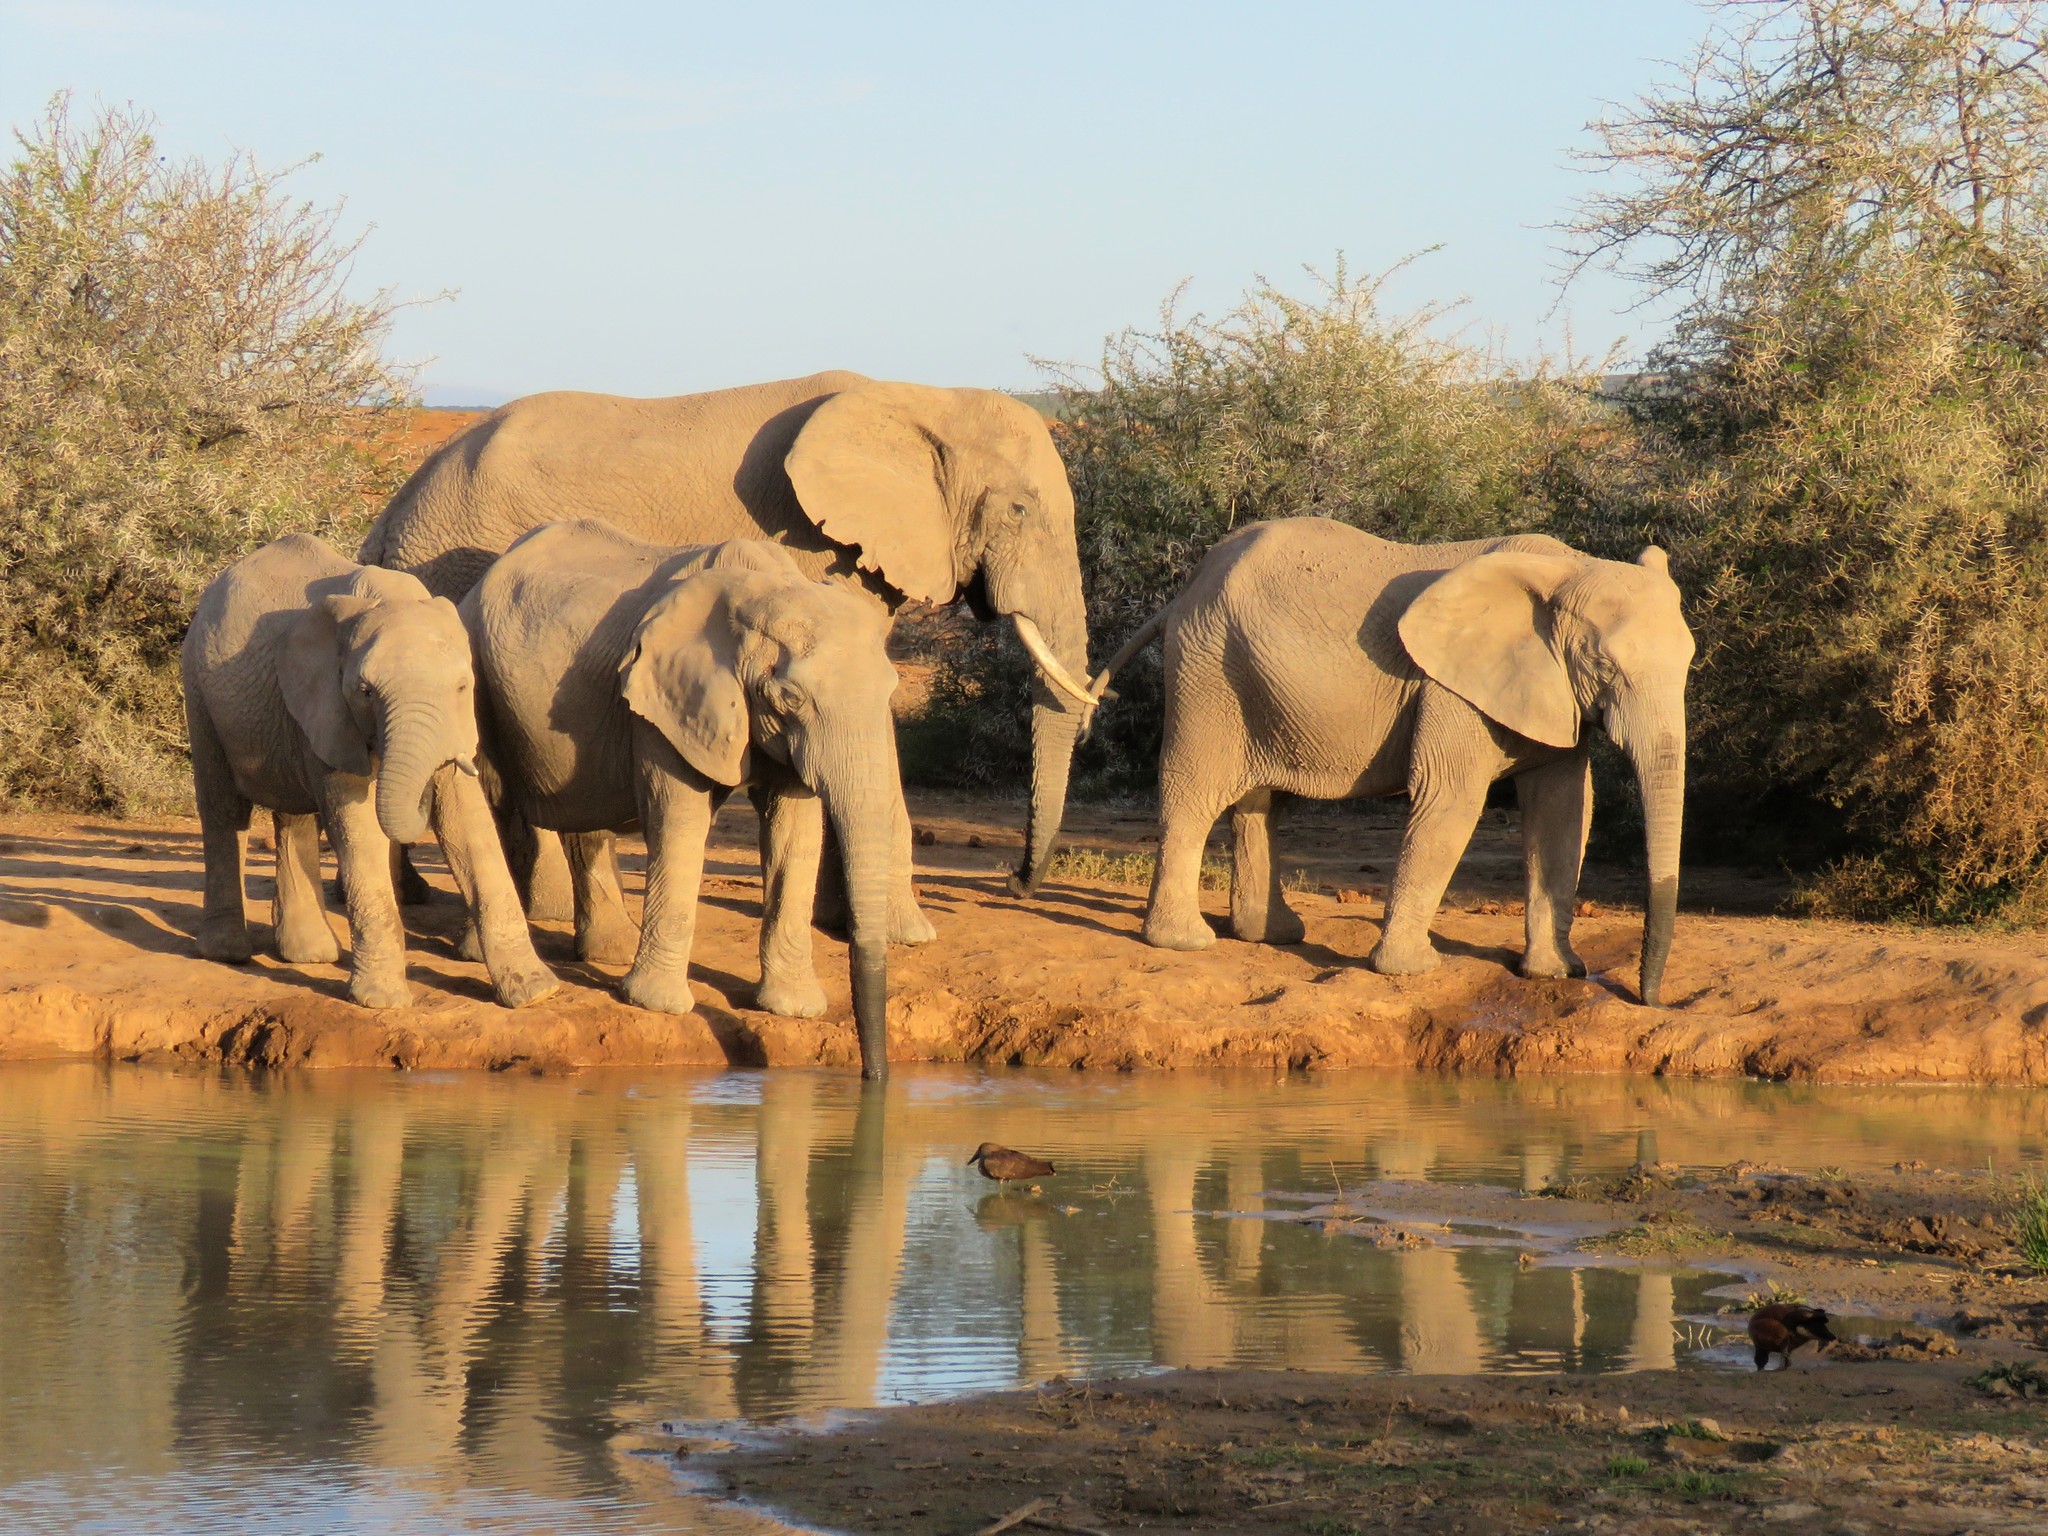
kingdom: Animalia
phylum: Chordata
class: Mammalia
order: Proboscidea
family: Elephantidae
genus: Loxodonta
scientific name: Loxodonta africana
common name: African elephant
